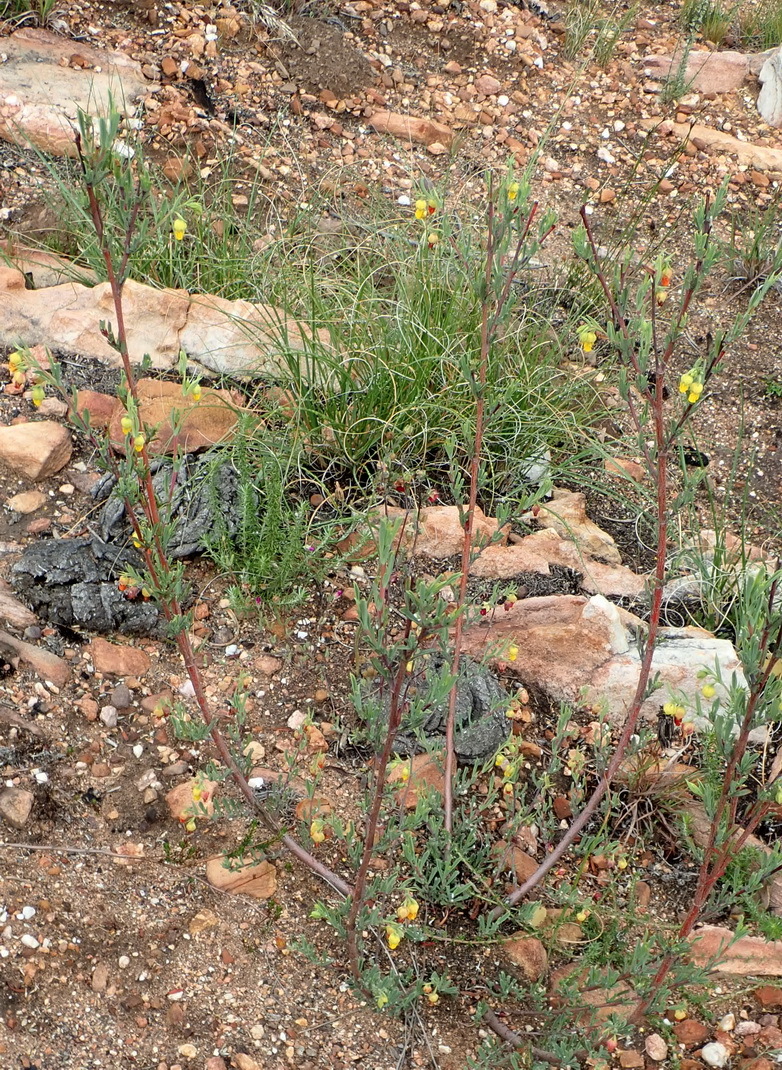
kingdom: Plantae
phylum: Tracheophyta
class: Magnoliopsida
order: Malvales
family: Malvaceae
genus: Hermannia
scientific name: Hermannia
